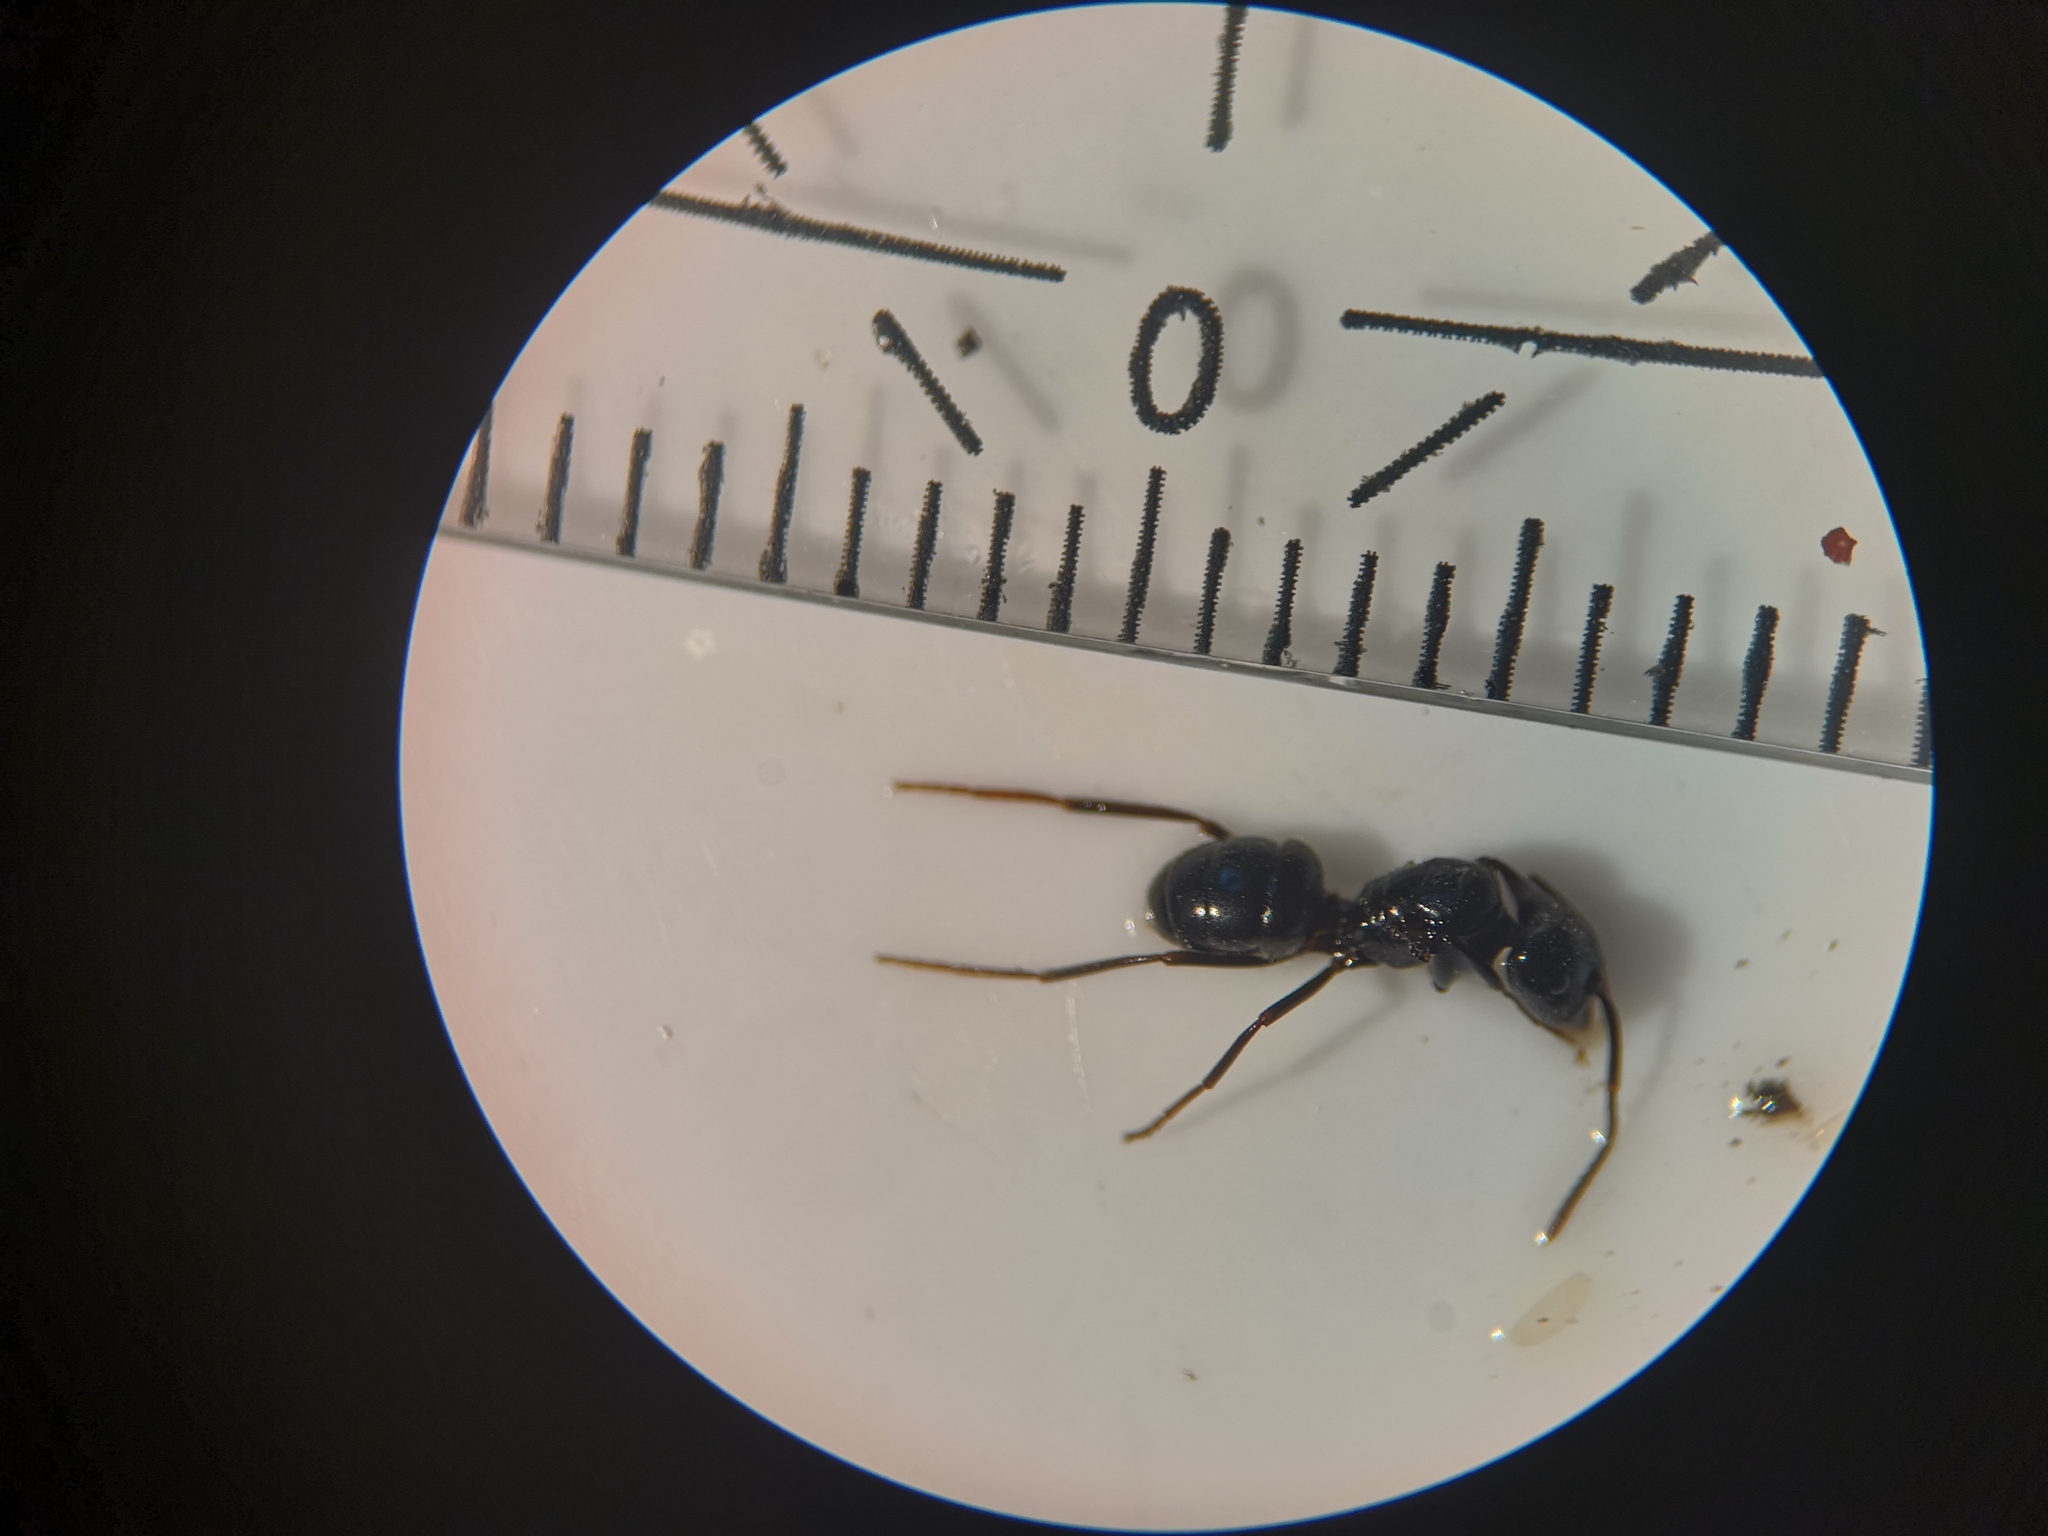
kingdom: Animalia
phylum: Arthropoda
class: Insecta
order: Hymenoptera
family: Formicidae
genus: Lasius
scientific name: Lasius fuliginosus
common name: Jet ant
